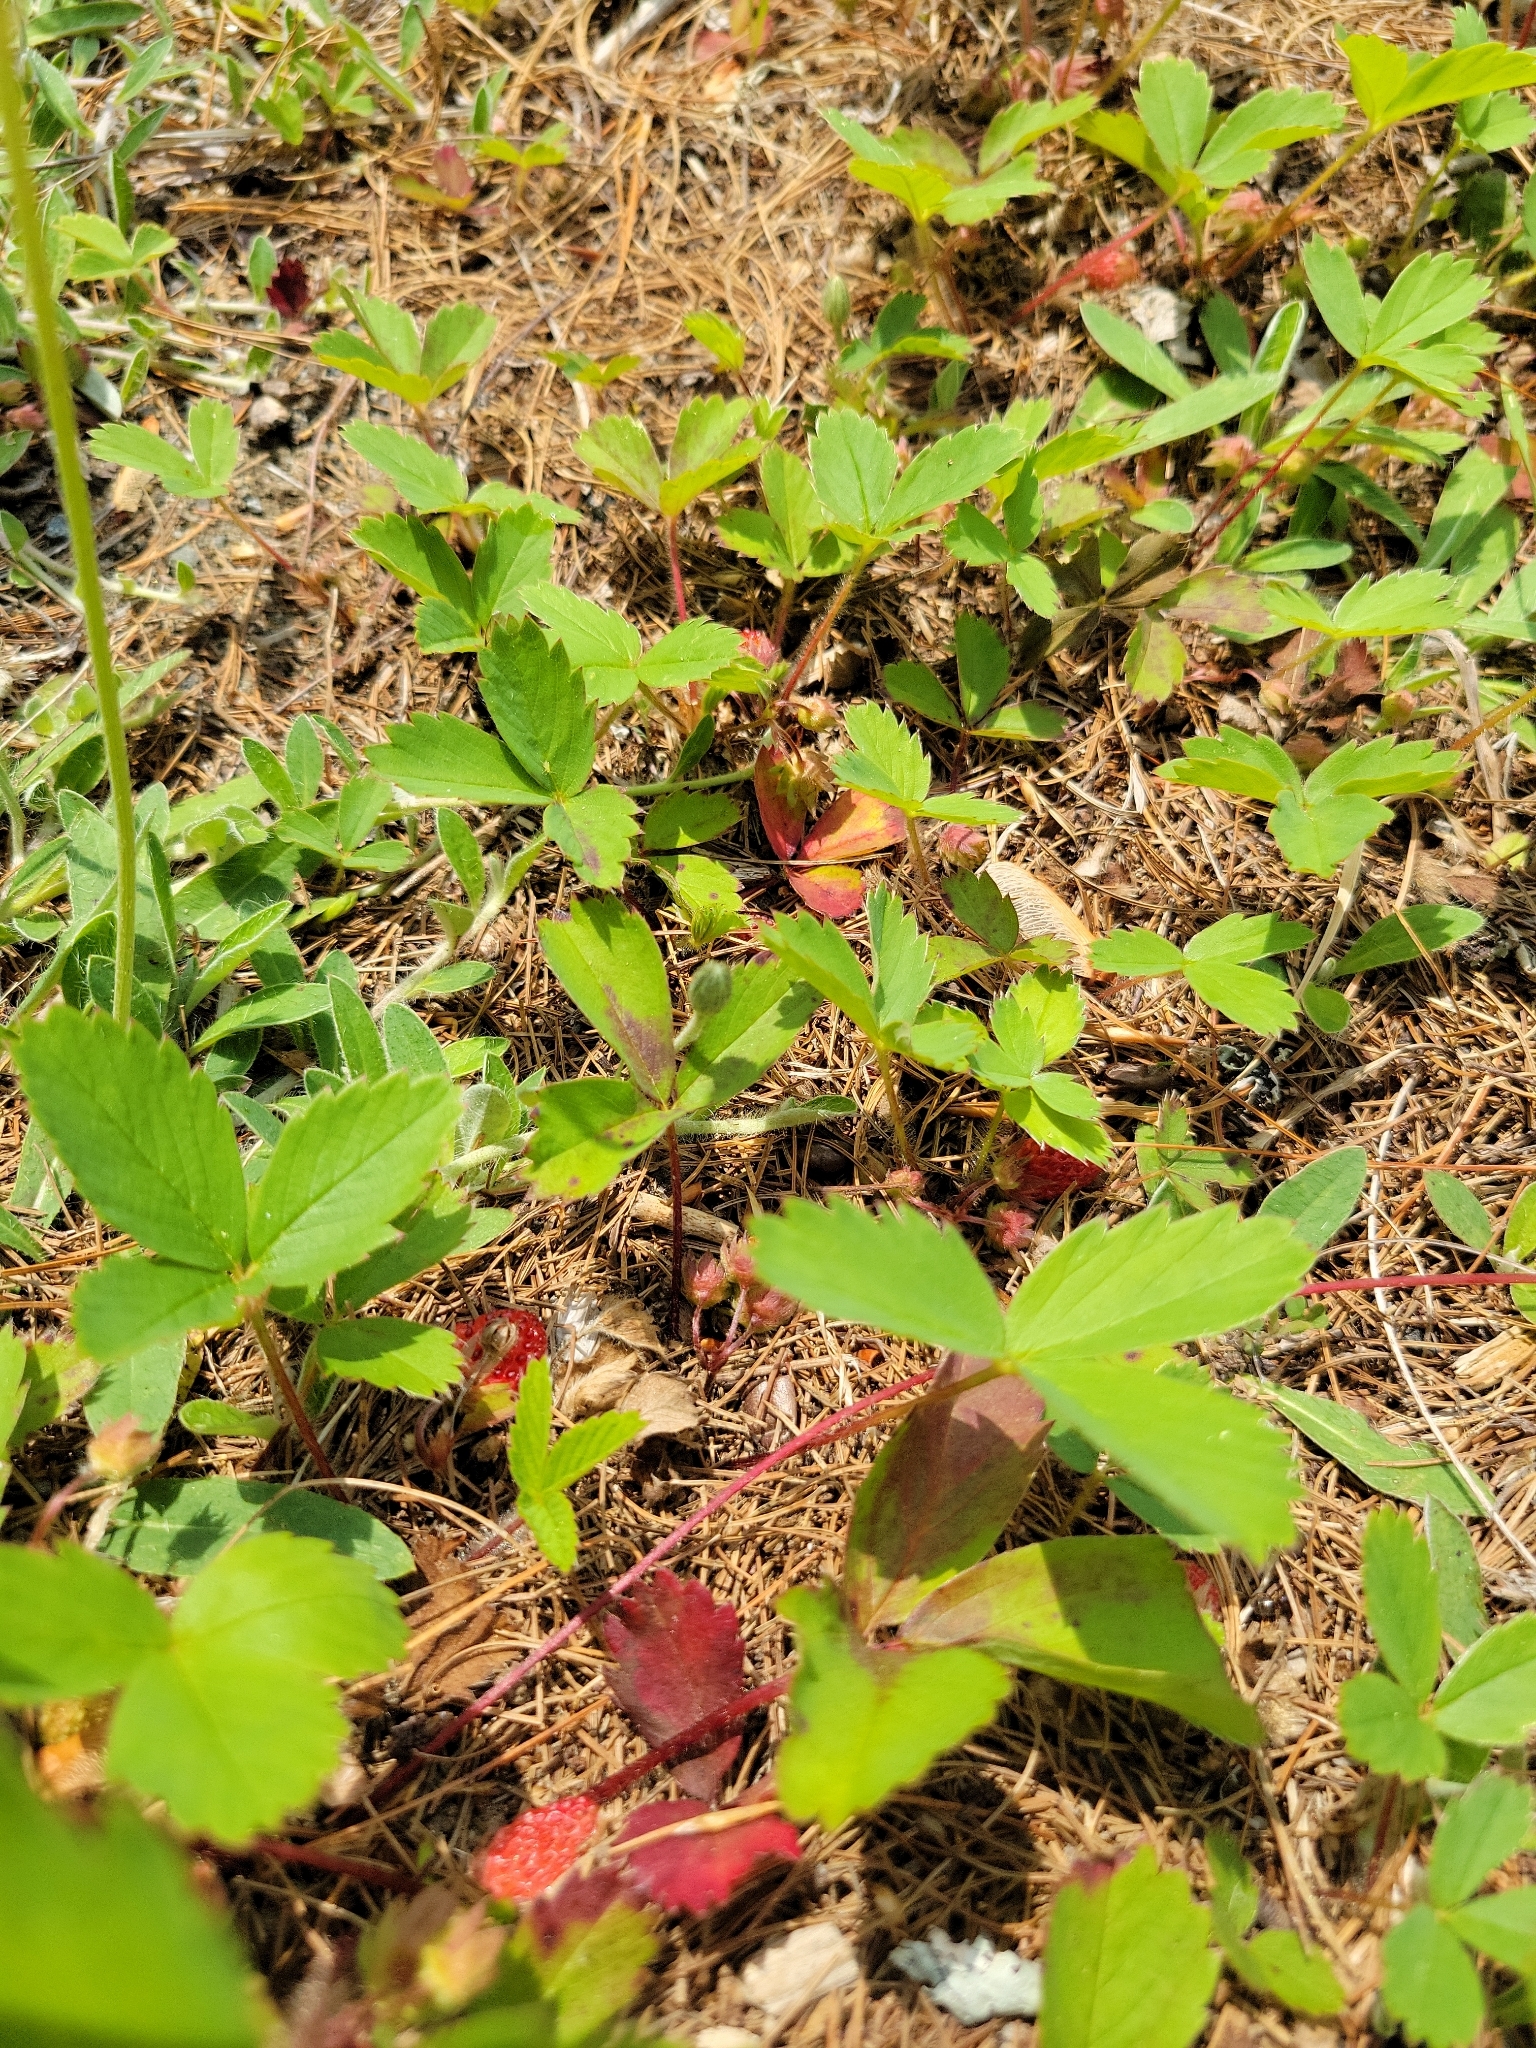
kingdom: Plantae
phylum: Tracheophyta
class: Magnoliopsida
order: Rosales
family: Rosaceae
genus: Fragaria
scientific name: Fragaria virginiana
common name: Thickleaved wild strawberry
